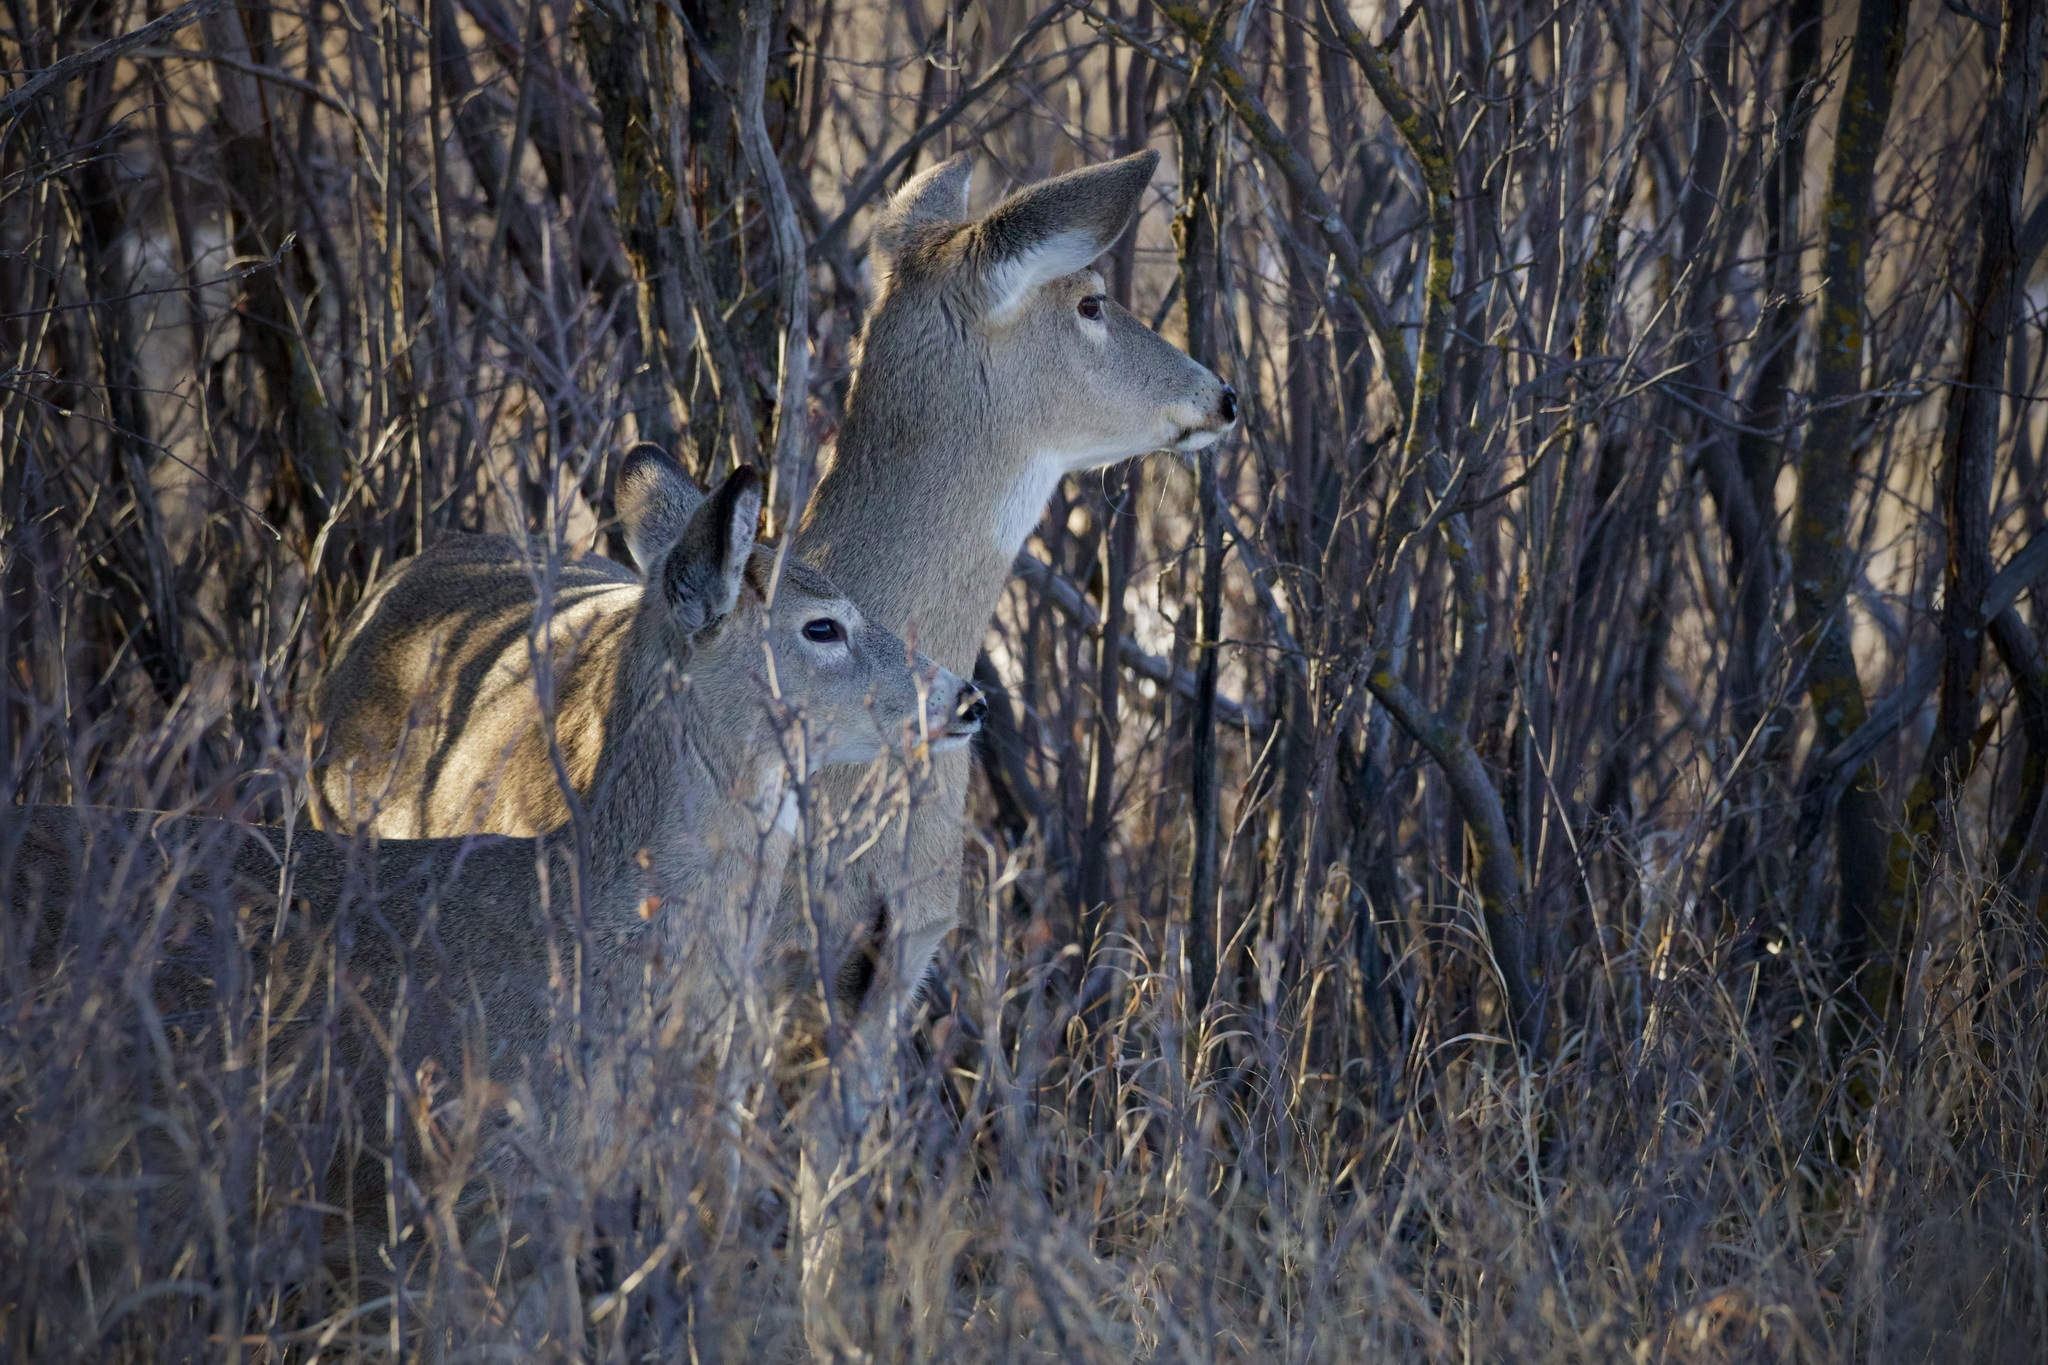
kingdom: Animalia
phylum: Chordata
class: Mammalia
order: Artiodactyla
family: Cervidae
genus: Odocoileus
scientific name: Odocoileus virginianus
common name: White-tailed deer
